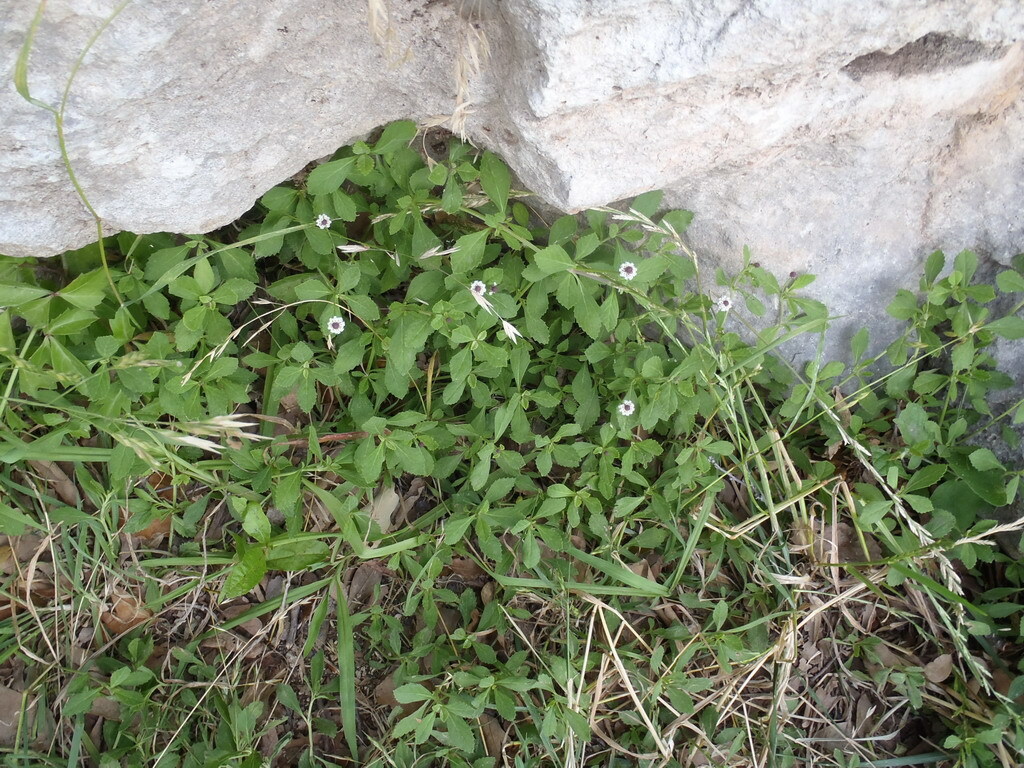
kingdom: Plantae
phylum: Tracheophyta
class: Magnoliopsida
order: Lamiales
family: Verbenaceae
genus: Phyla
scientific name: Phyla nodiflora
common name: Frogfruit
